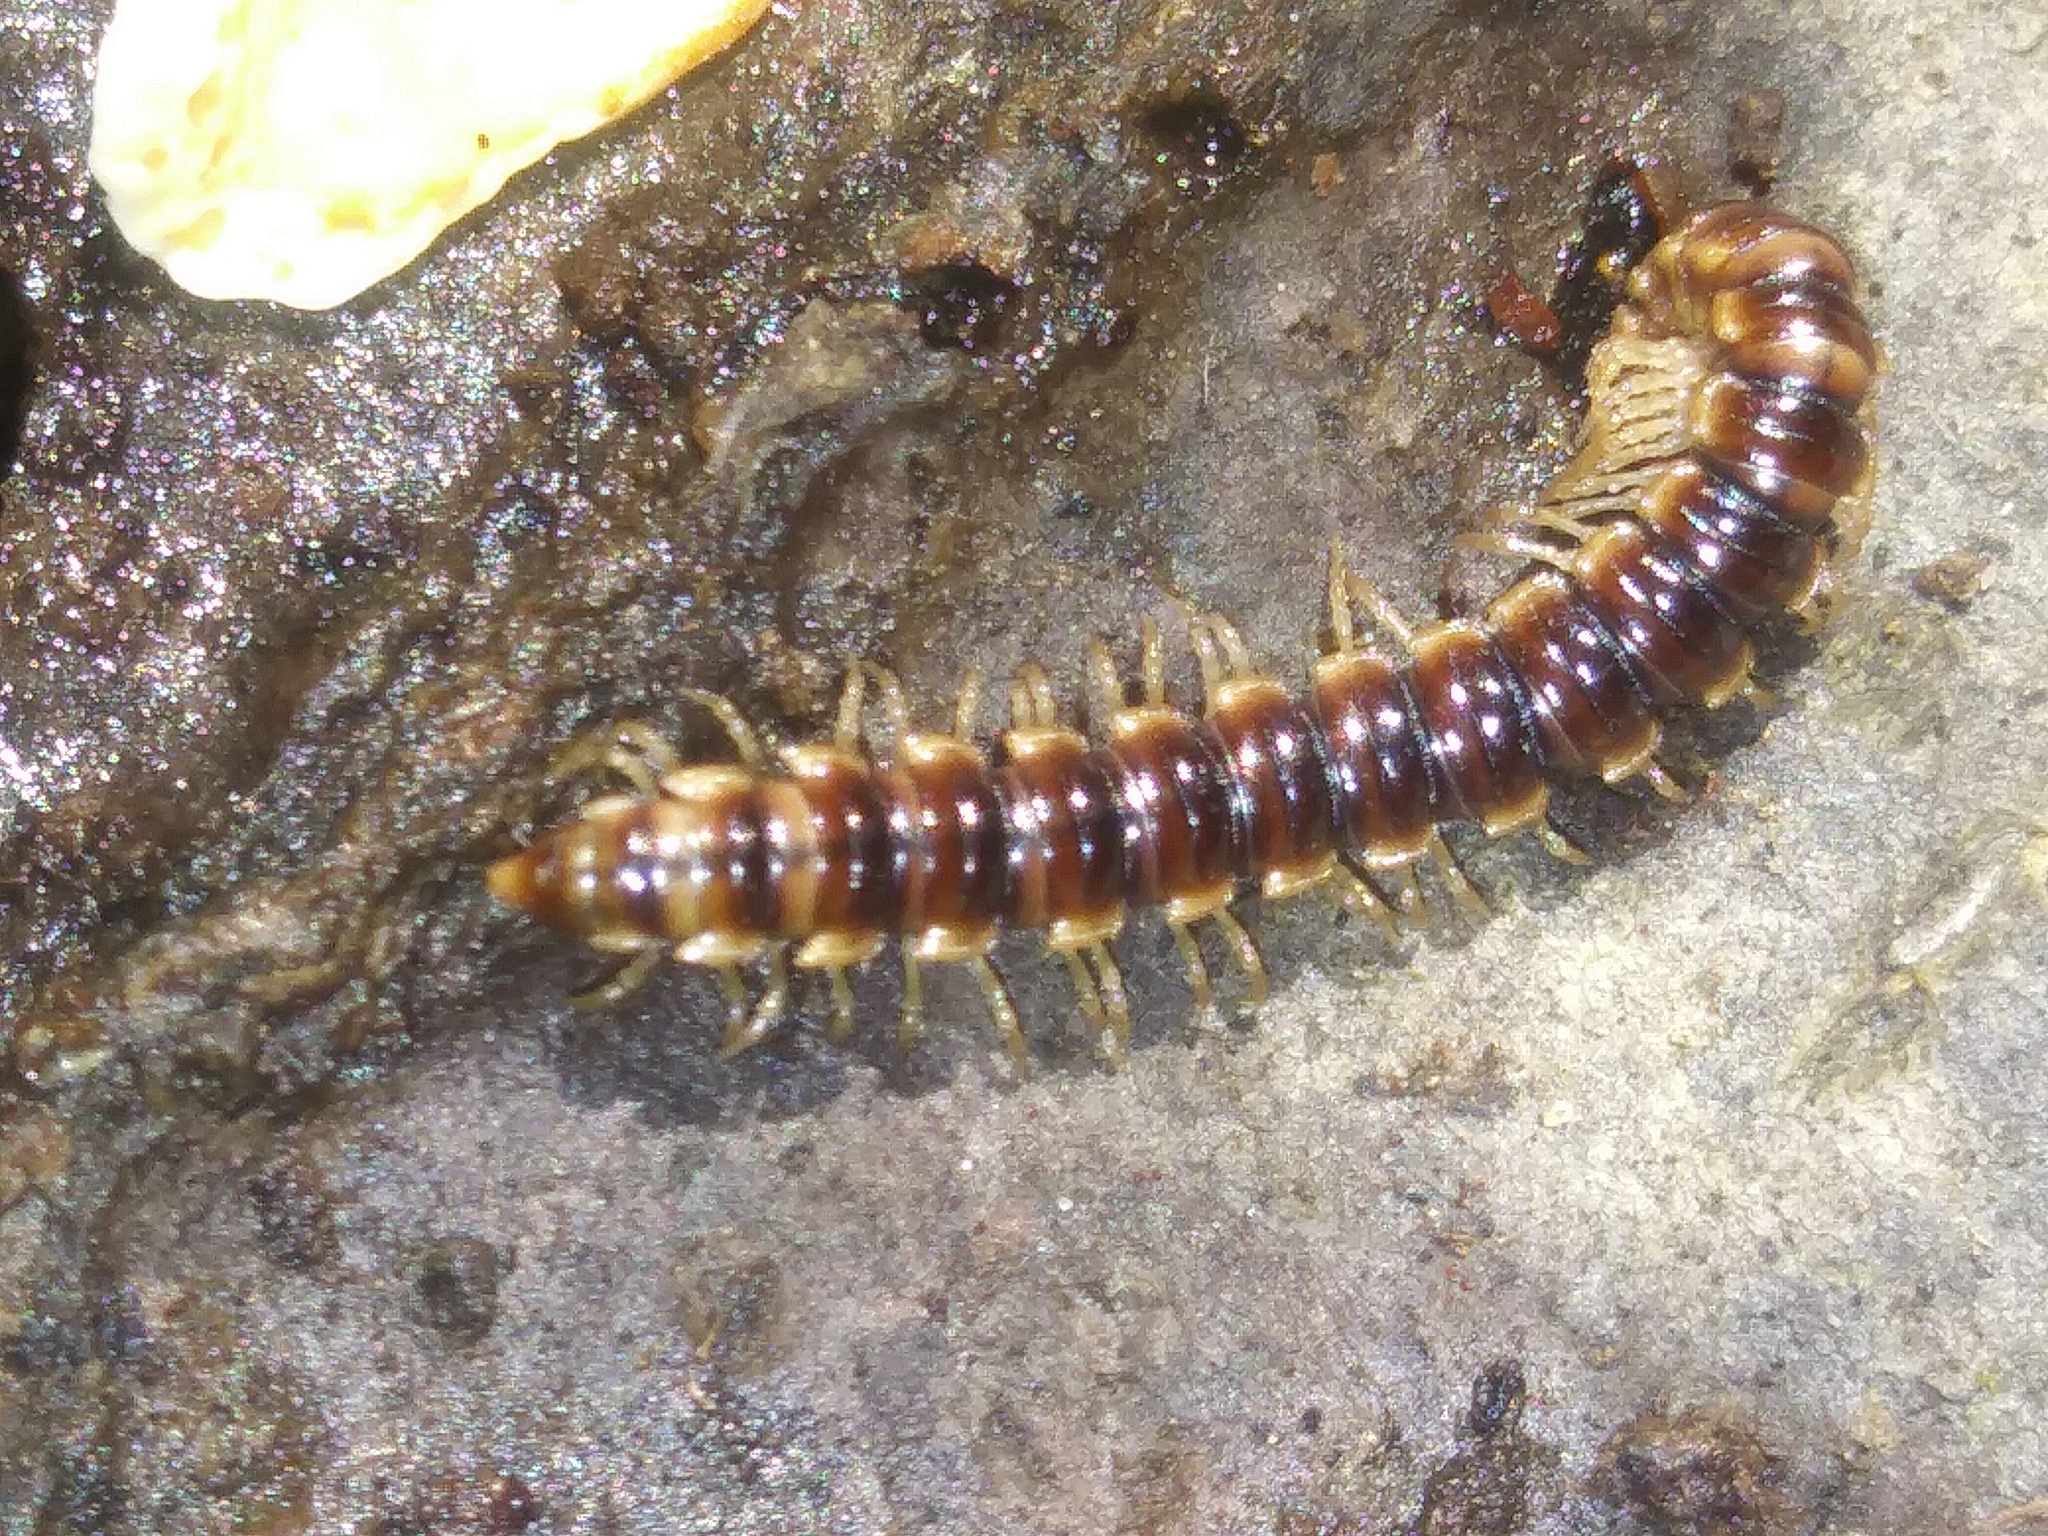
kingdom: Animalia
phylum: Arthropoda
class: Diplopoda
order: Polydesmida
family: Paradoxosomatidae
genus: Oxidus
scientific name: Oxidus gracilis
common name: Greenhouse millipede
